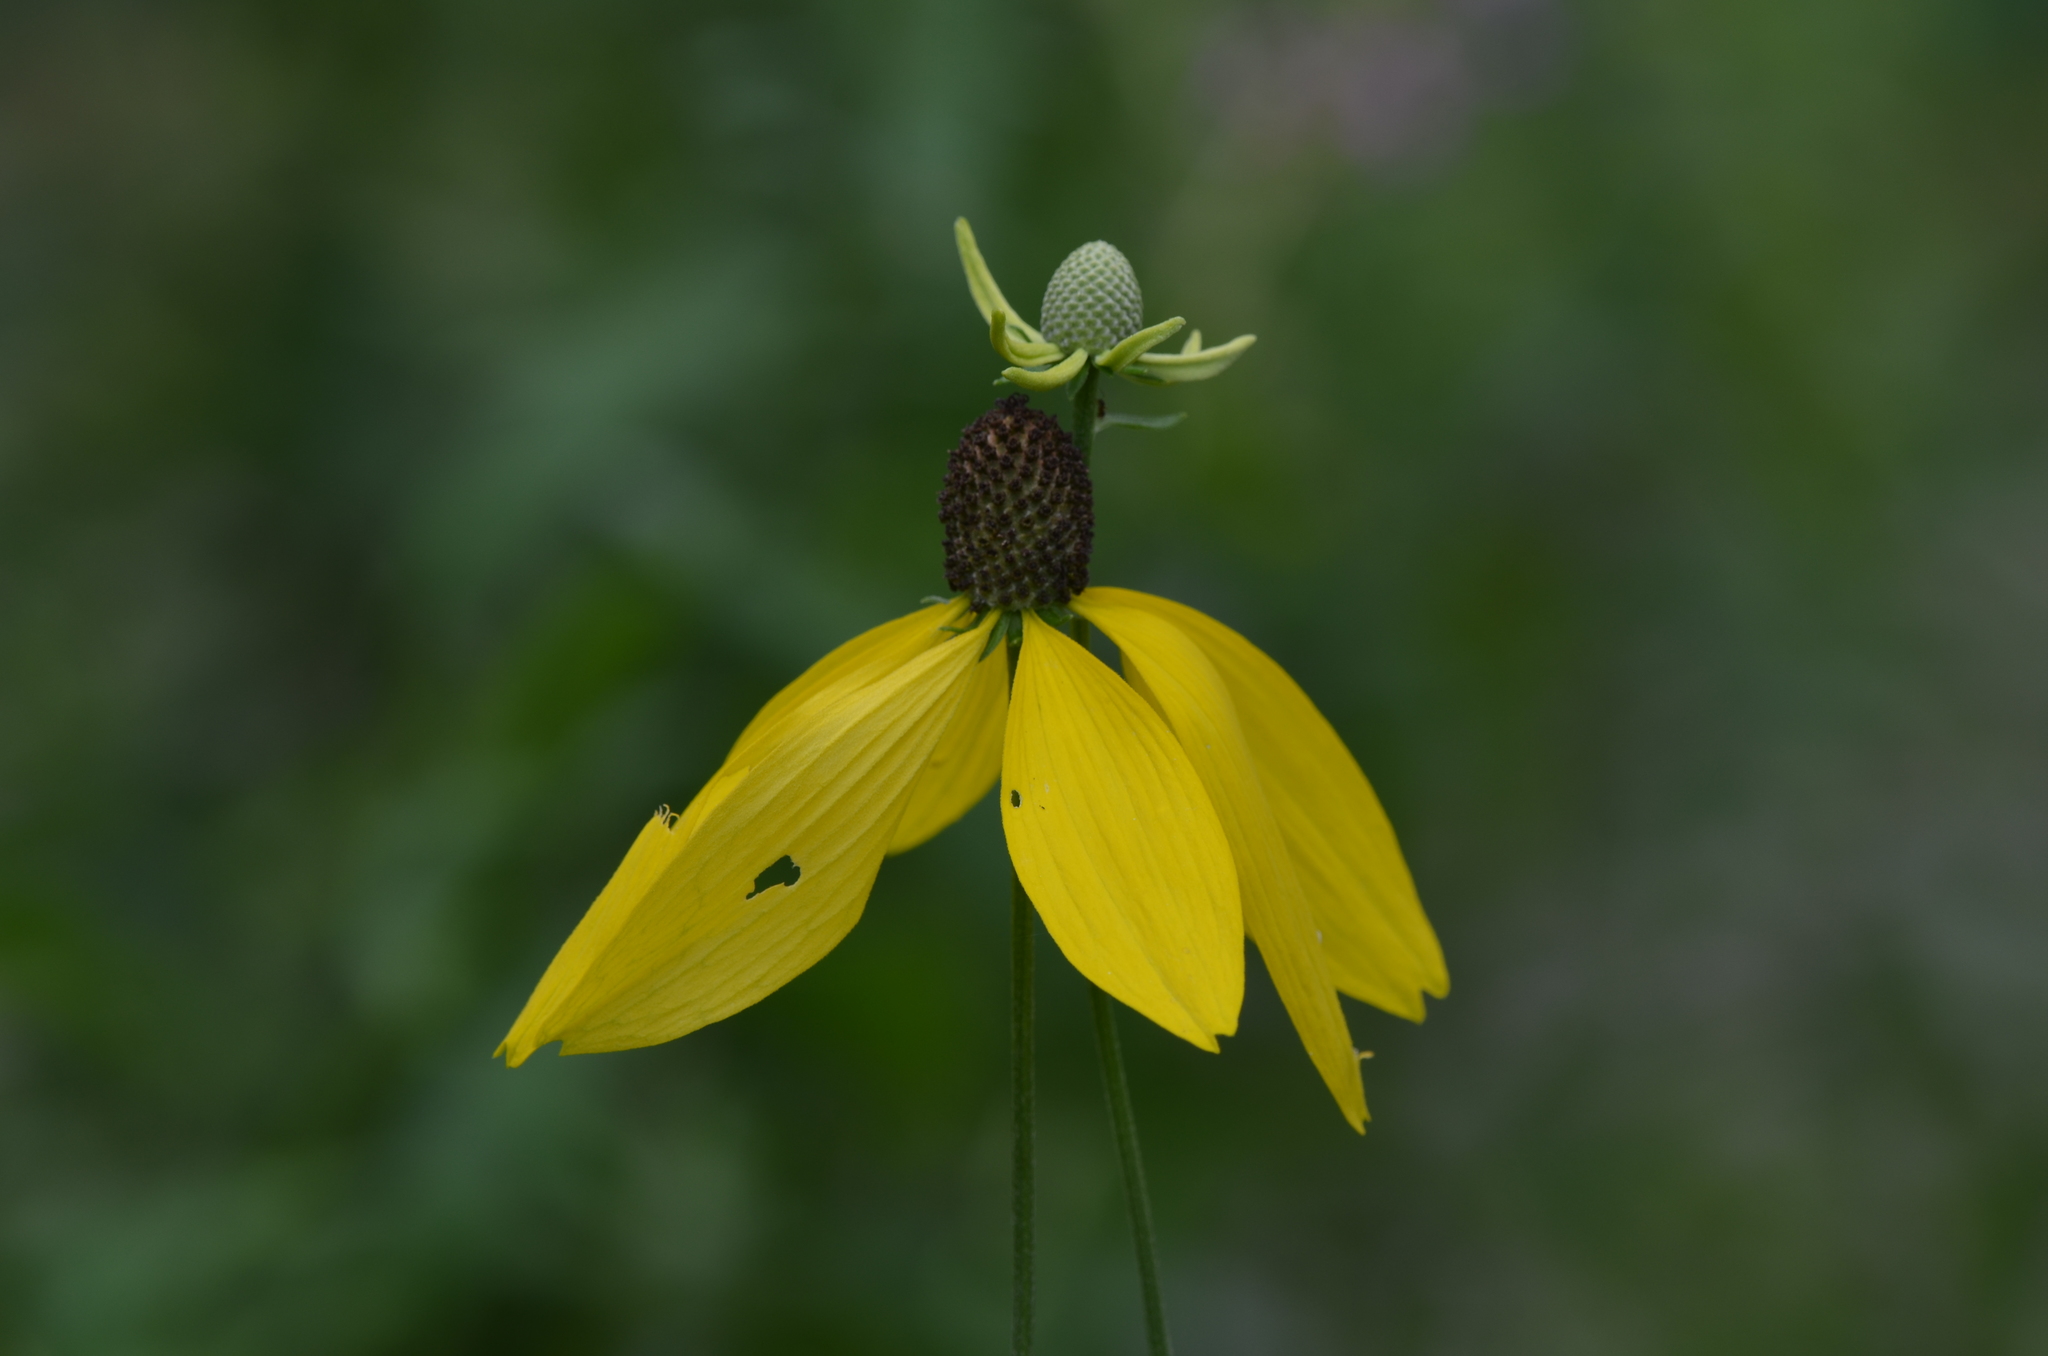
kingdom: Plantae
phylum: Tracheophyta
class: Magnoliopsida
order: Asterales
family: Asteraceae
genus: Rudbeckia
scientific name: Rudbeckia laciniata
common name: Coneflower
